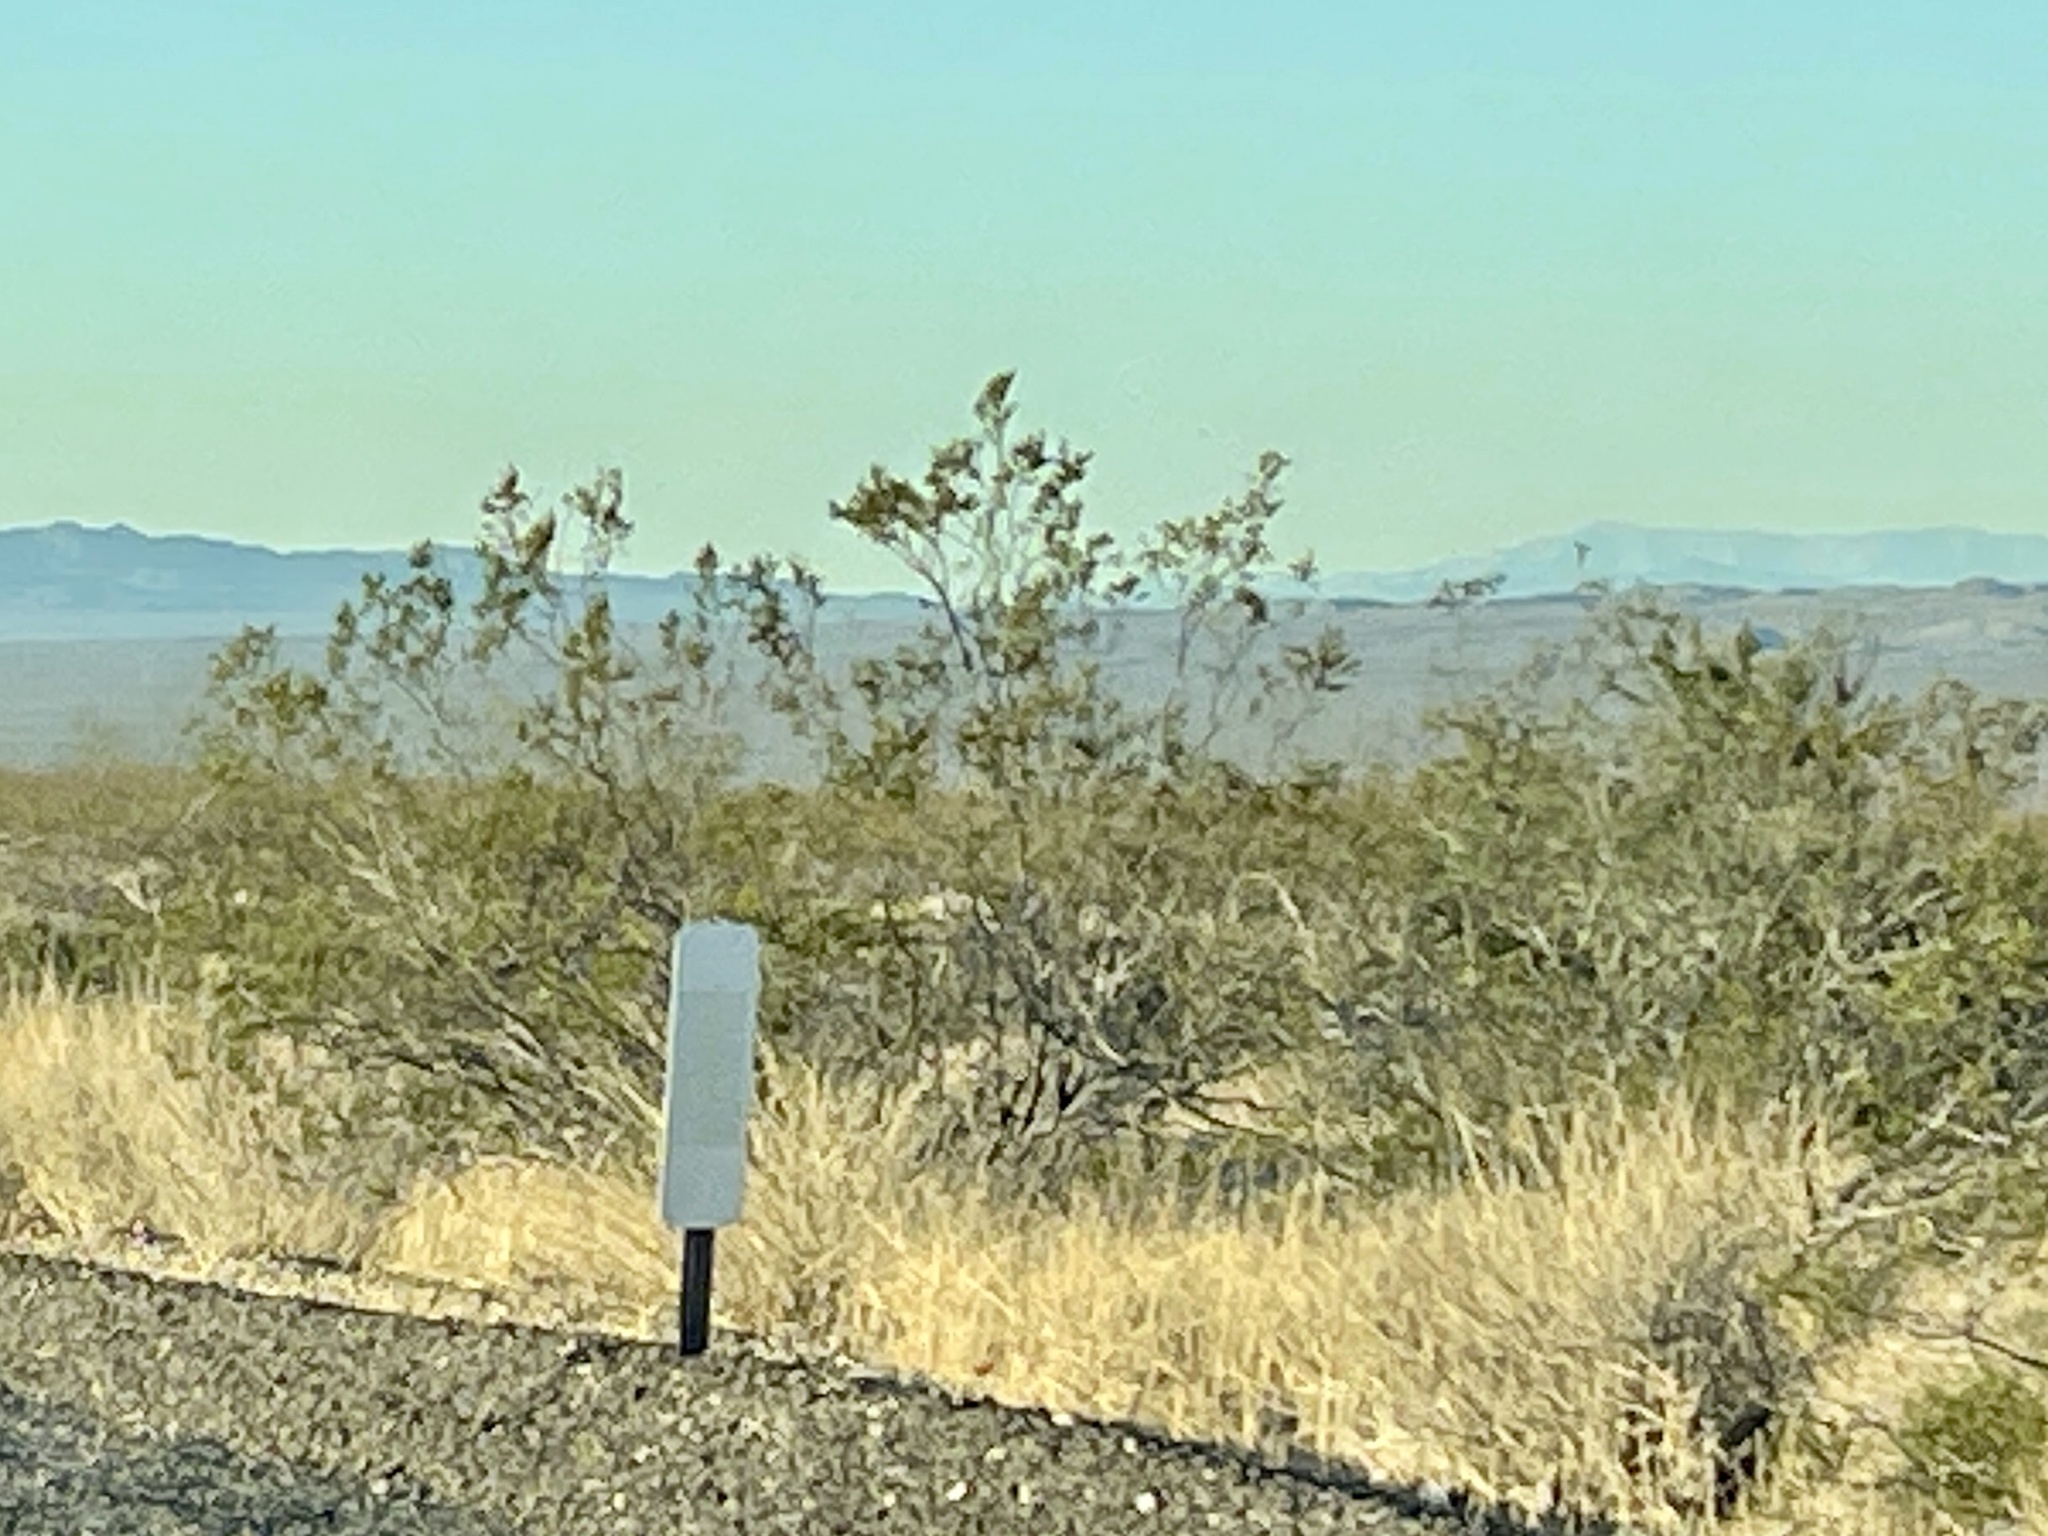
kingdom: Plantae
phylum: Tracheophyta
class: Magnoliopsida
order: Zygophyllales
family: Zygophyllaceae
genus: Larrea
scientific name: Larrea tridentata
